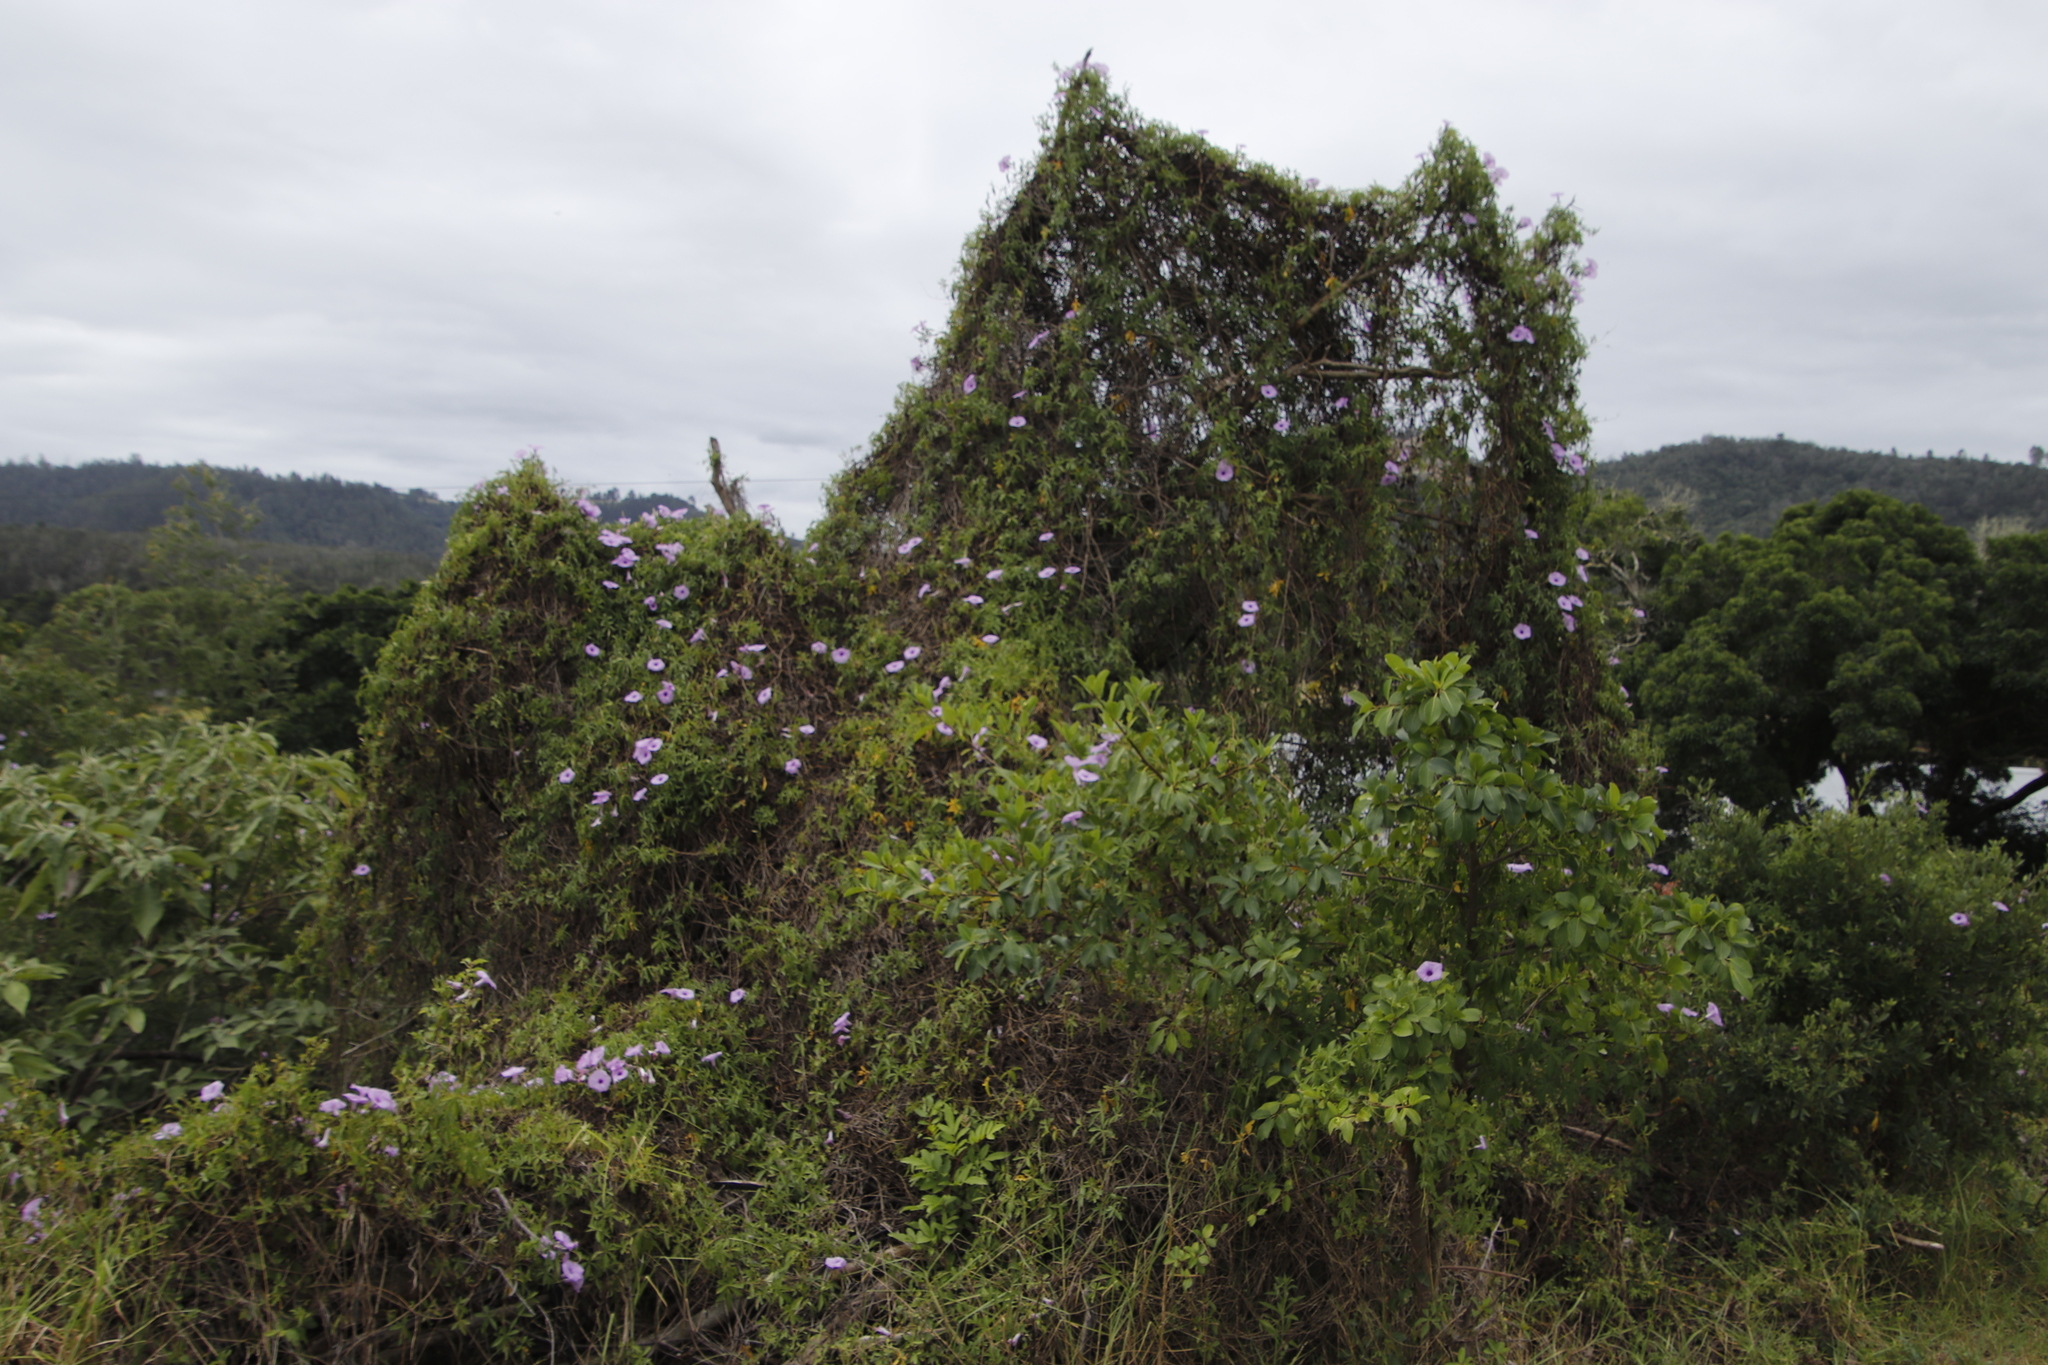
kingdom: Plantae
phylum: Tracheophyta
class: Magnoliopsida
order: Solanales
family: Convolvulaceae
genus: Ipomoea
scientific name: Ipomoea cairica
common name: Mile a minute vine
